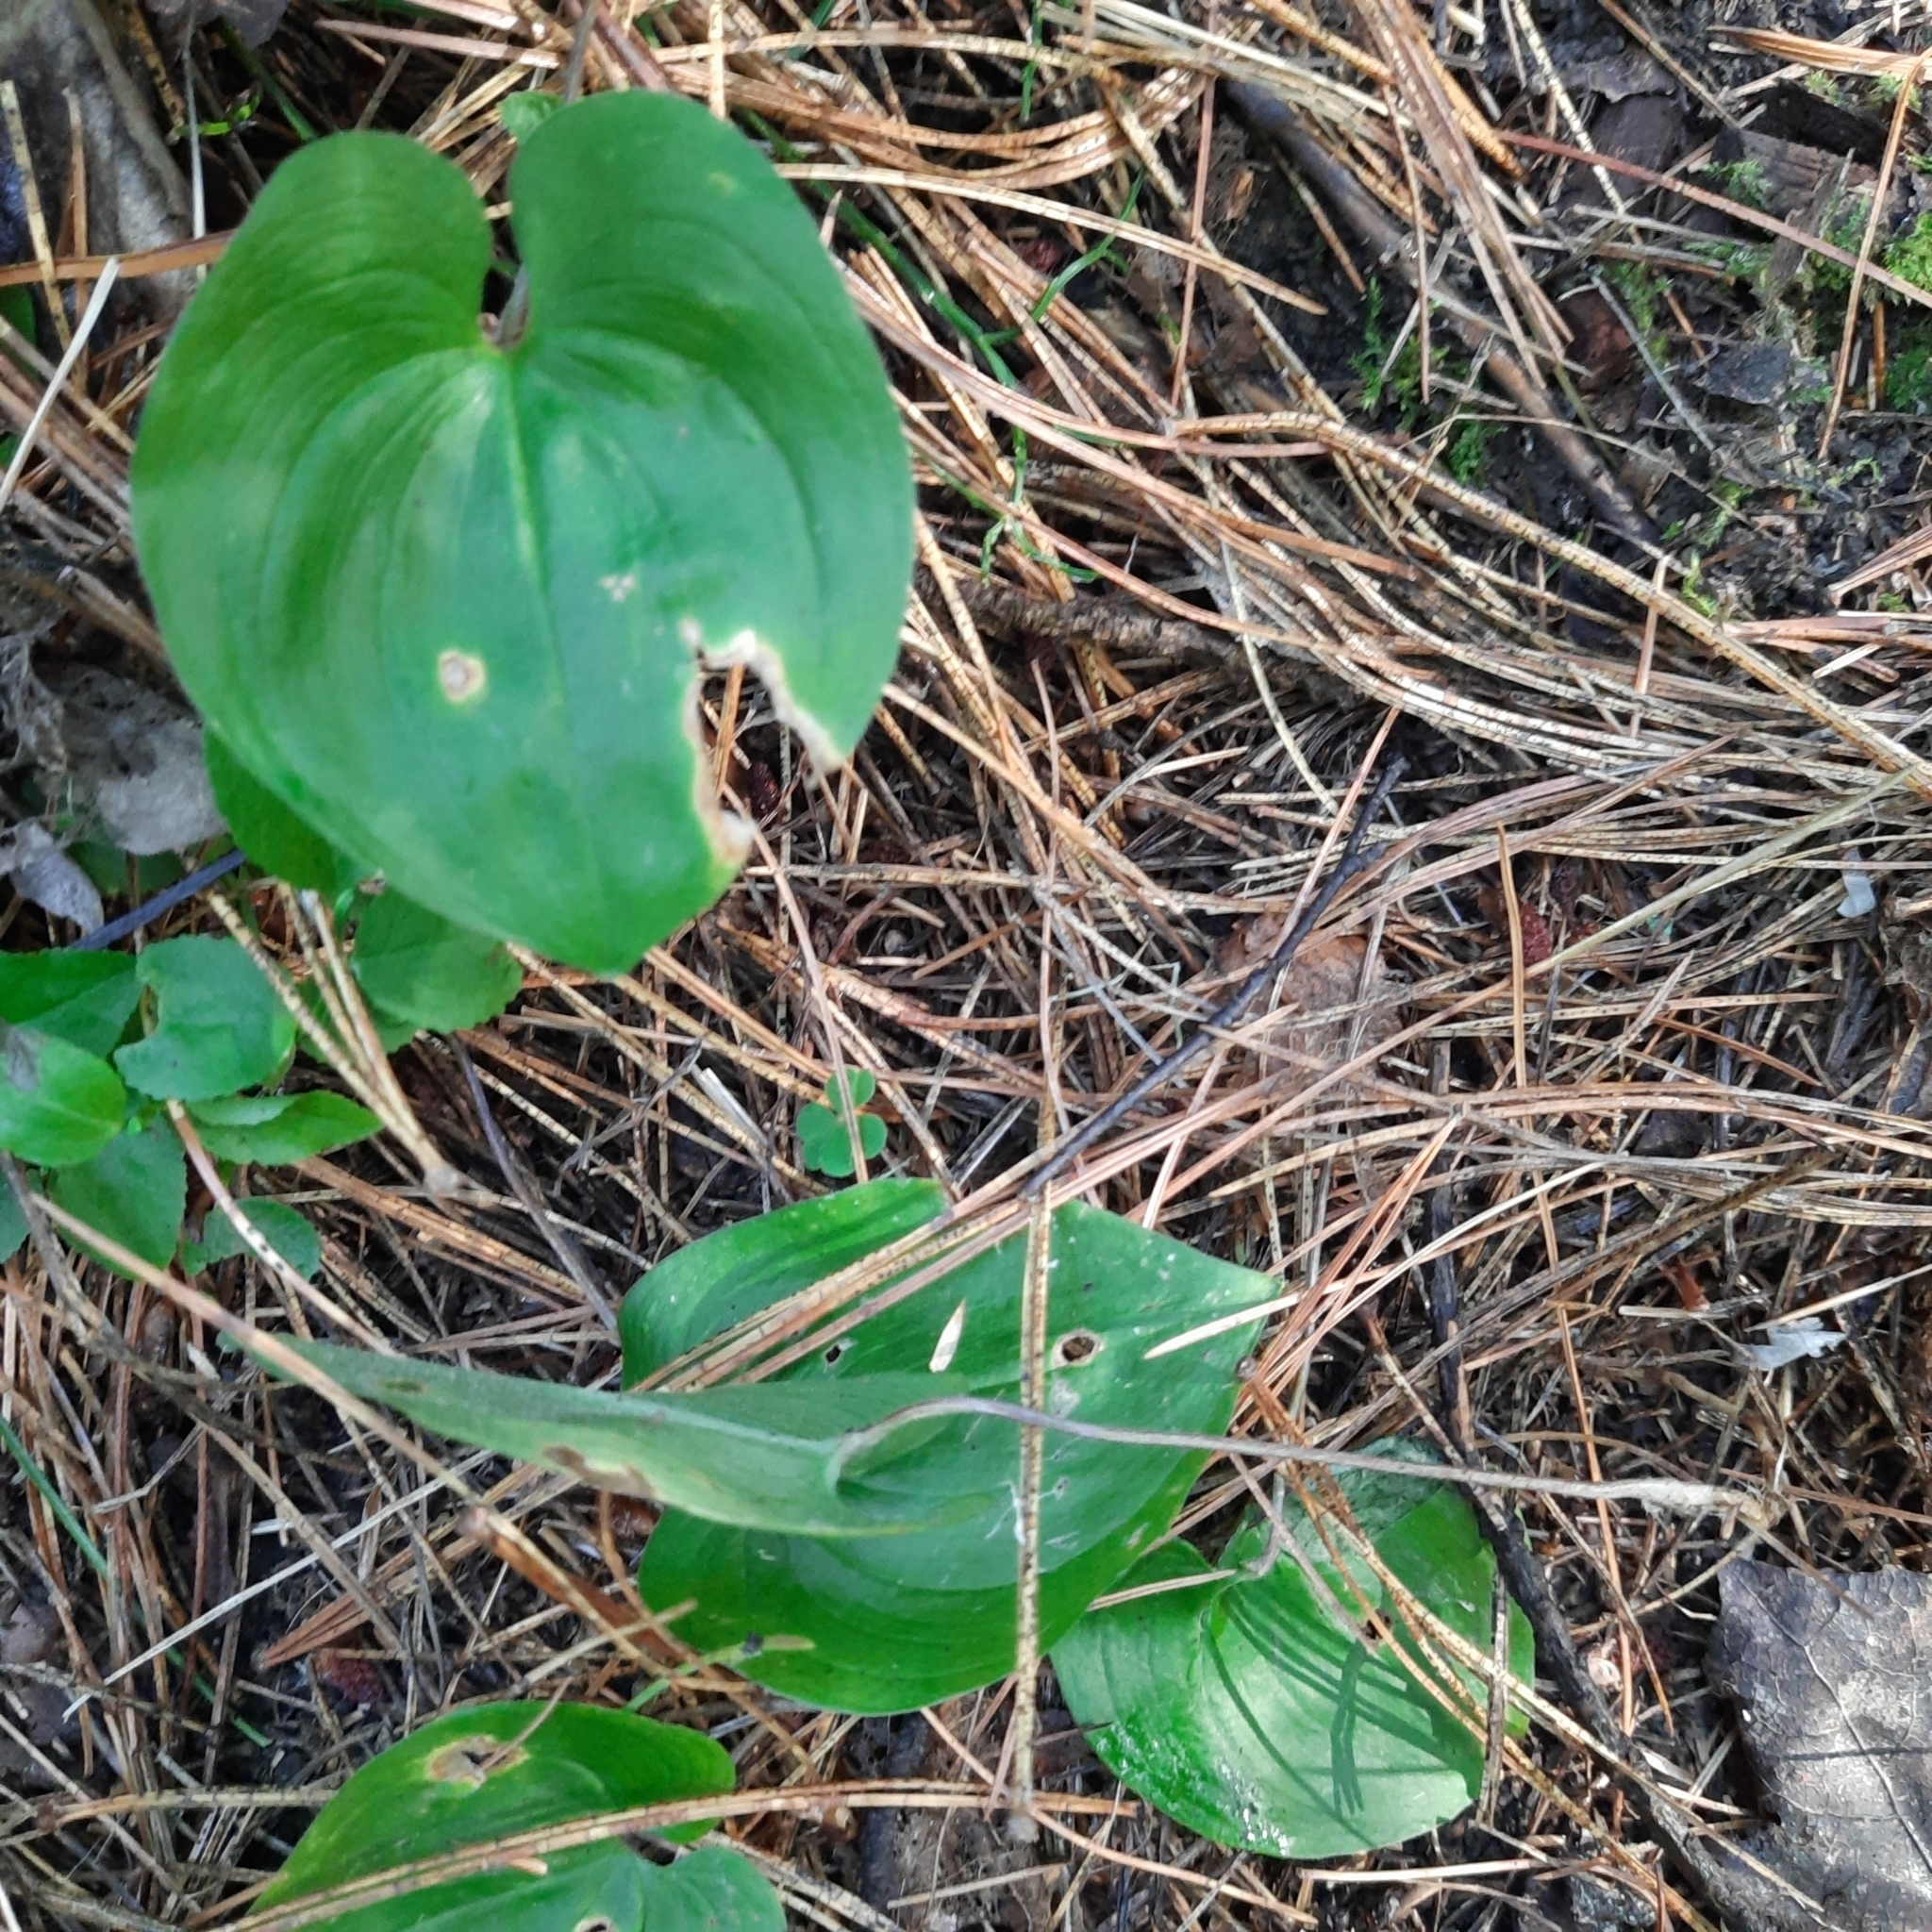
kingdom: Plantae
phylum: Tracheophyta
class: Liliopsida
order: Asparagales
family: Asparagaceae
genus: Maianthemum
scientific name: Maianthemum bifolium
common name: May lily
